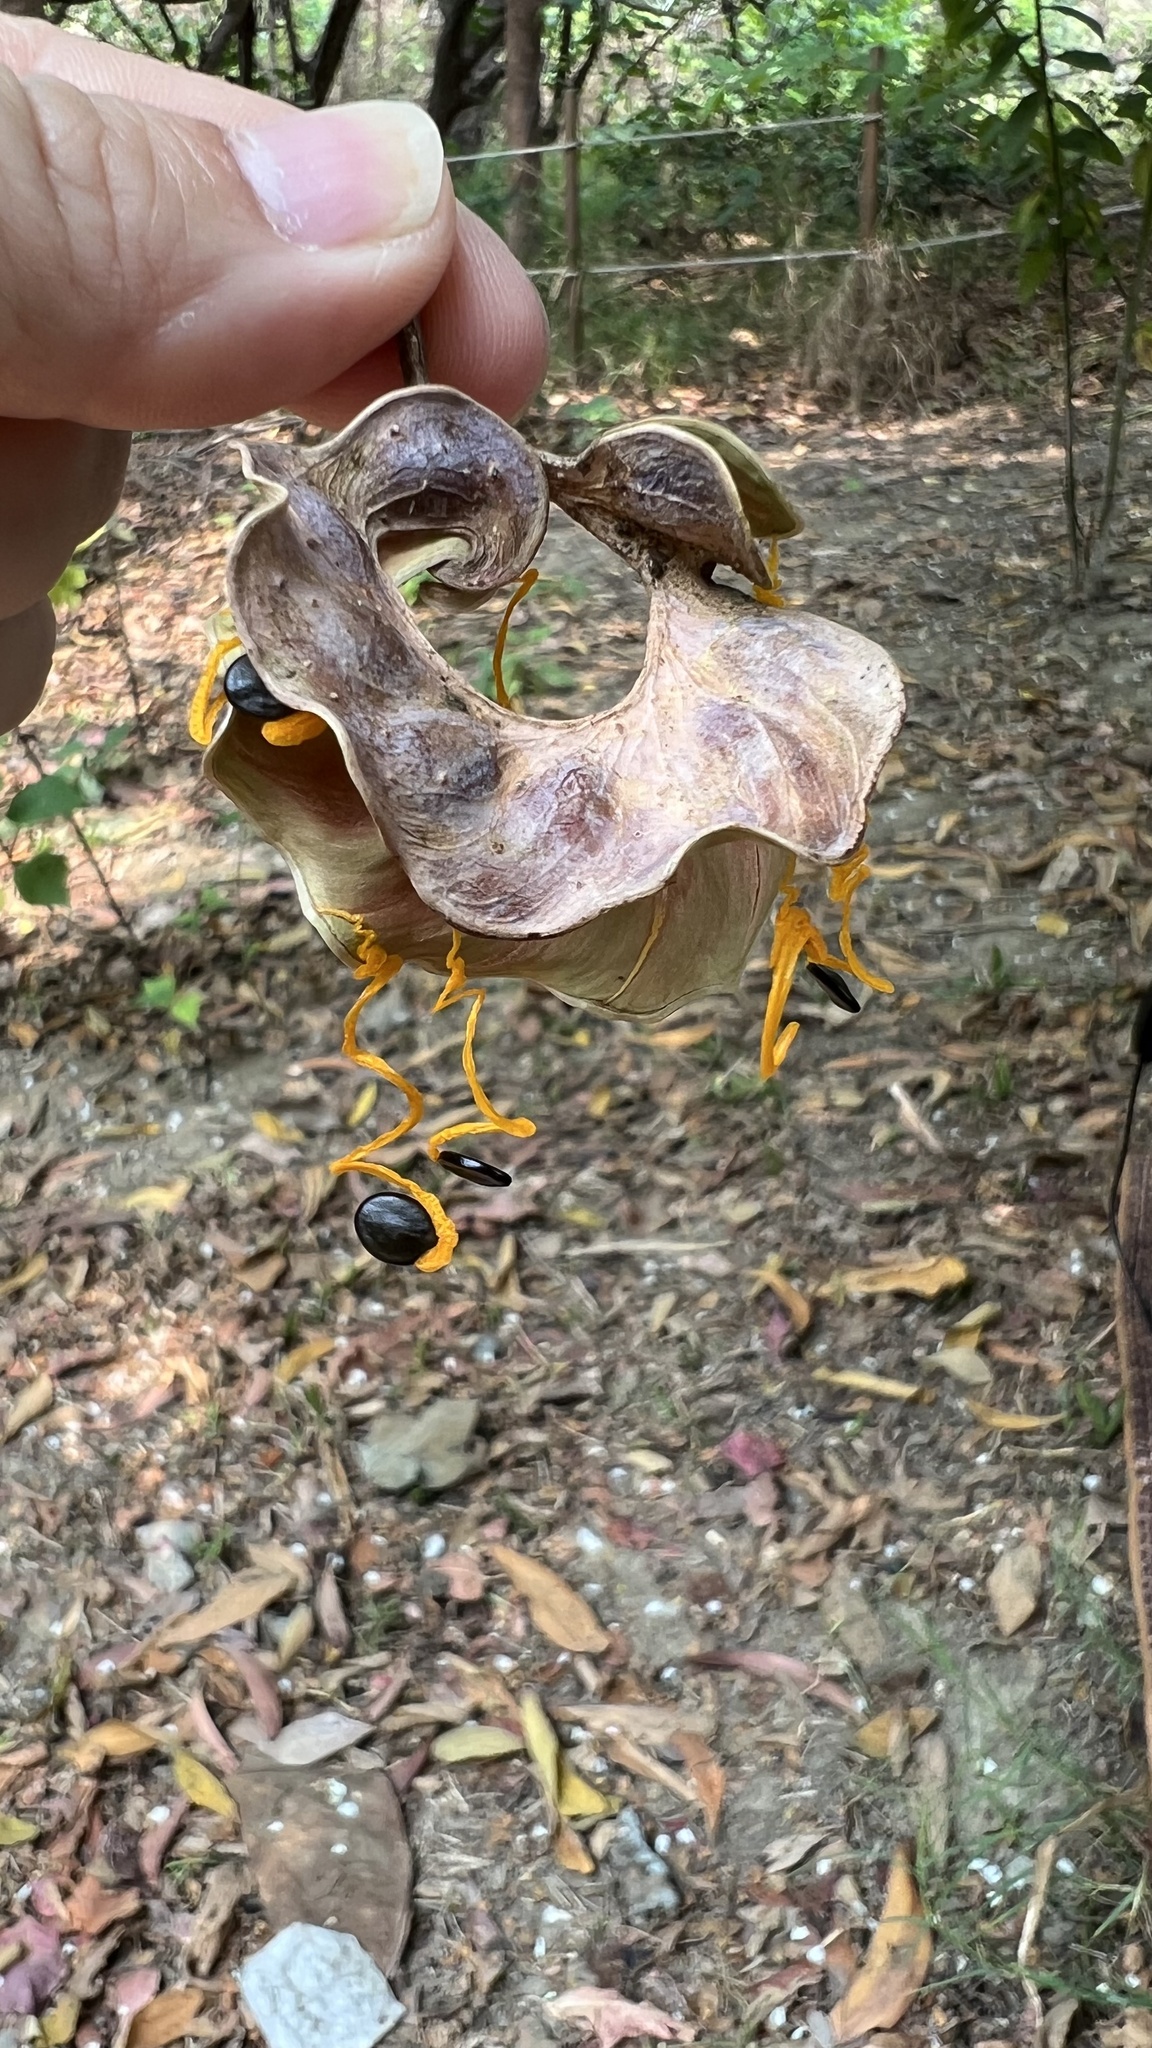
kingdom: Plantae
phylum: Tracheophyta
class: Magnoliopsida
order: Fabales
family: Fabaceae
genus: Acacia
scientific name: Acacia auriculiformis
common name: Earleaf acacia
